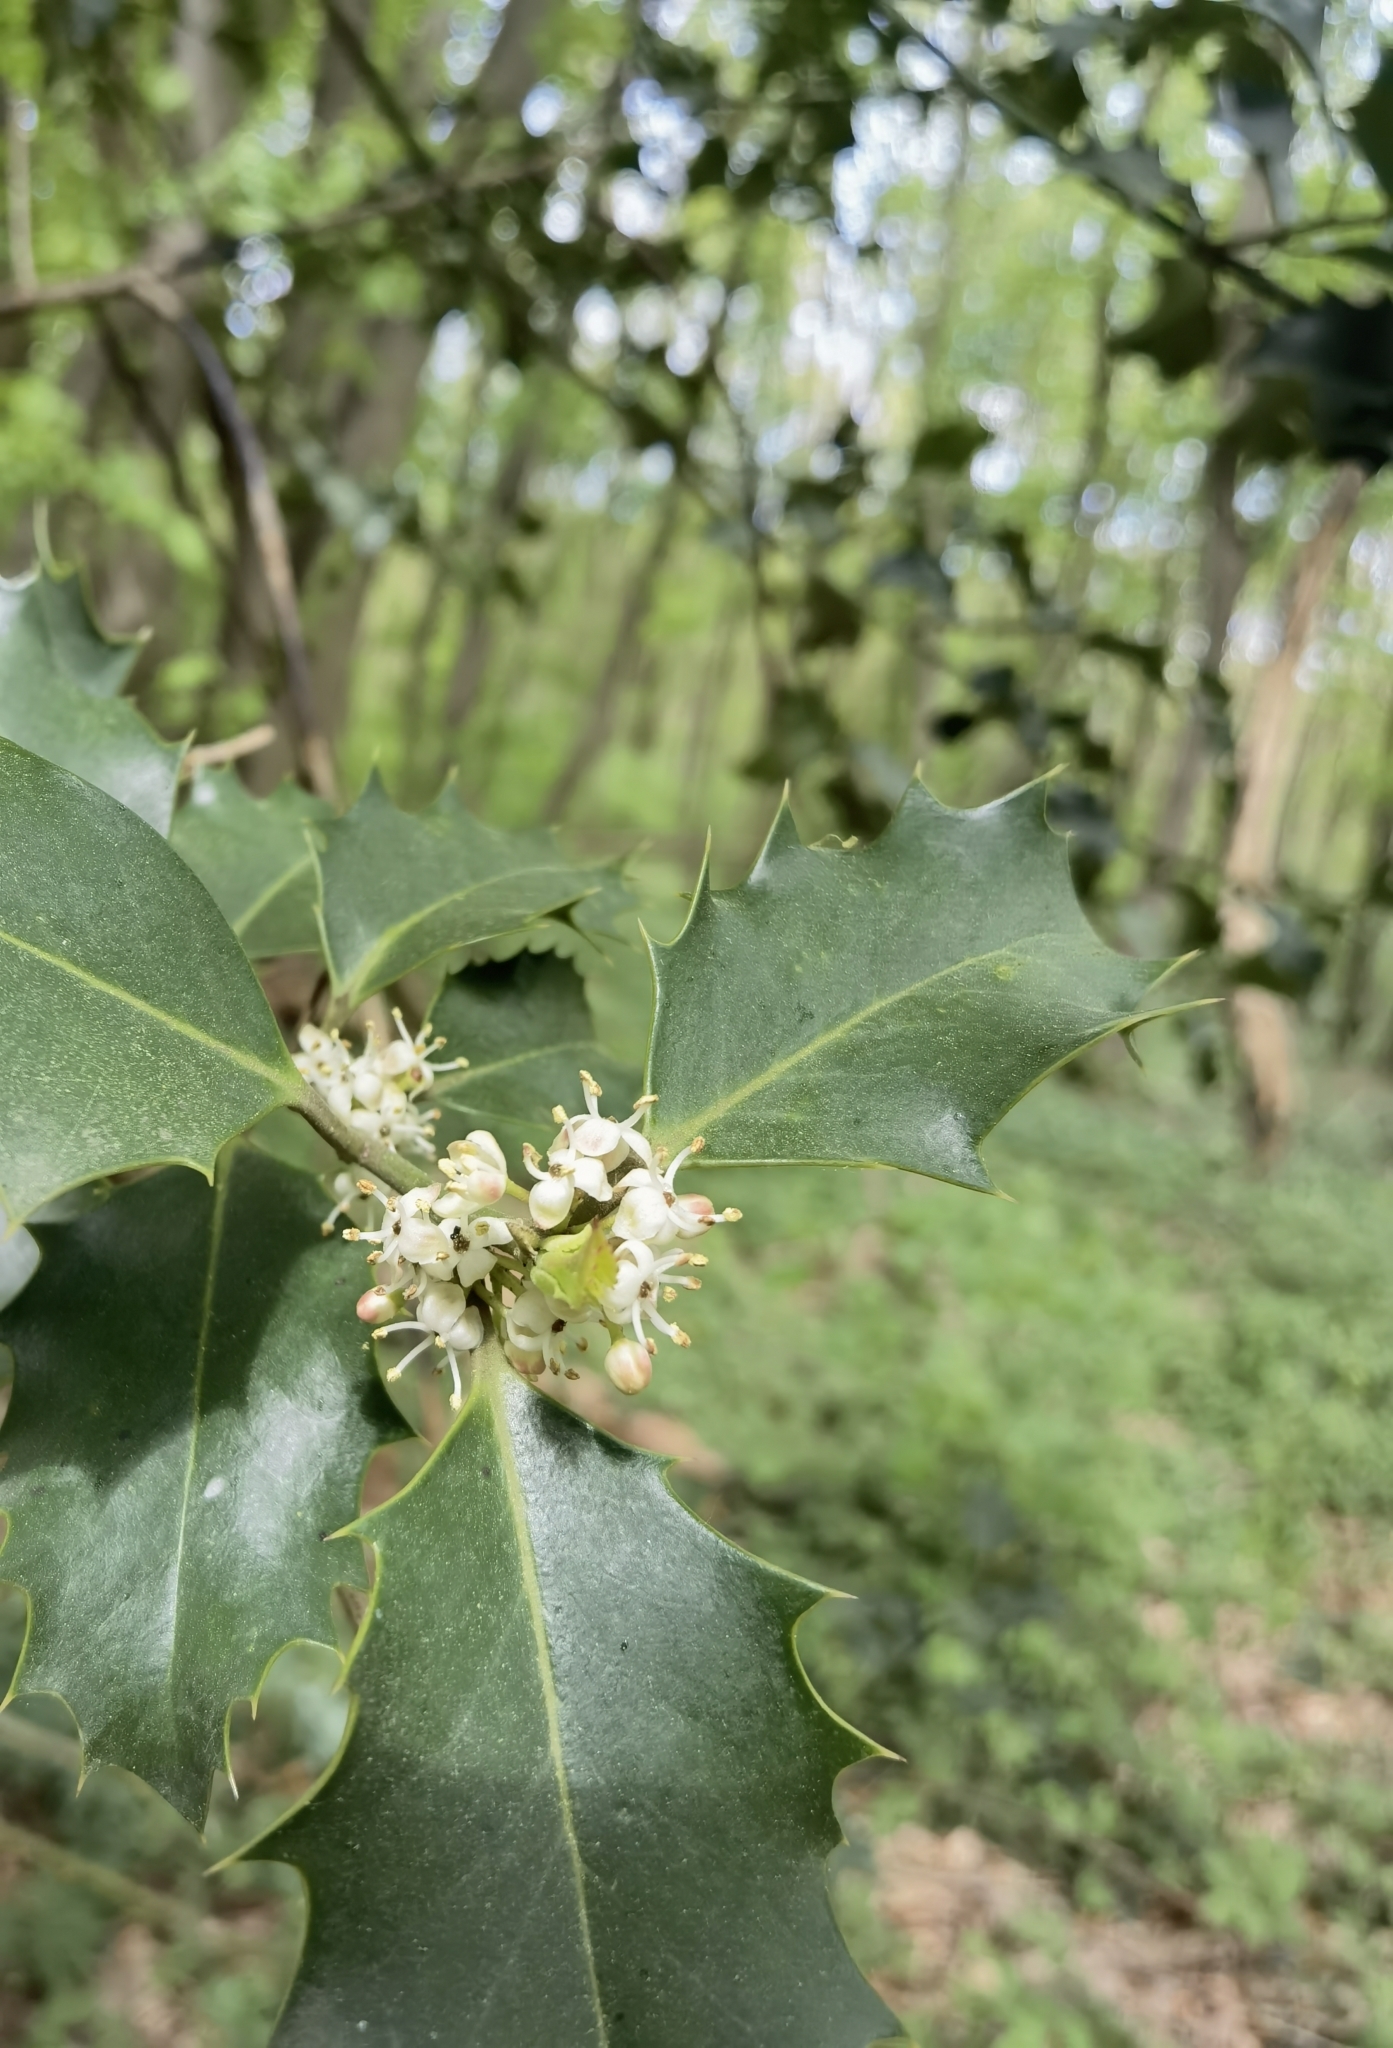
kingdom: Plantae
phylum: Tracheophyta
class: Magnoliopsida
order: Aquifoliales
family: Aquifoliaceae
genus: Ilex
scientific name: Ilex aquifolium
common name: English holly
